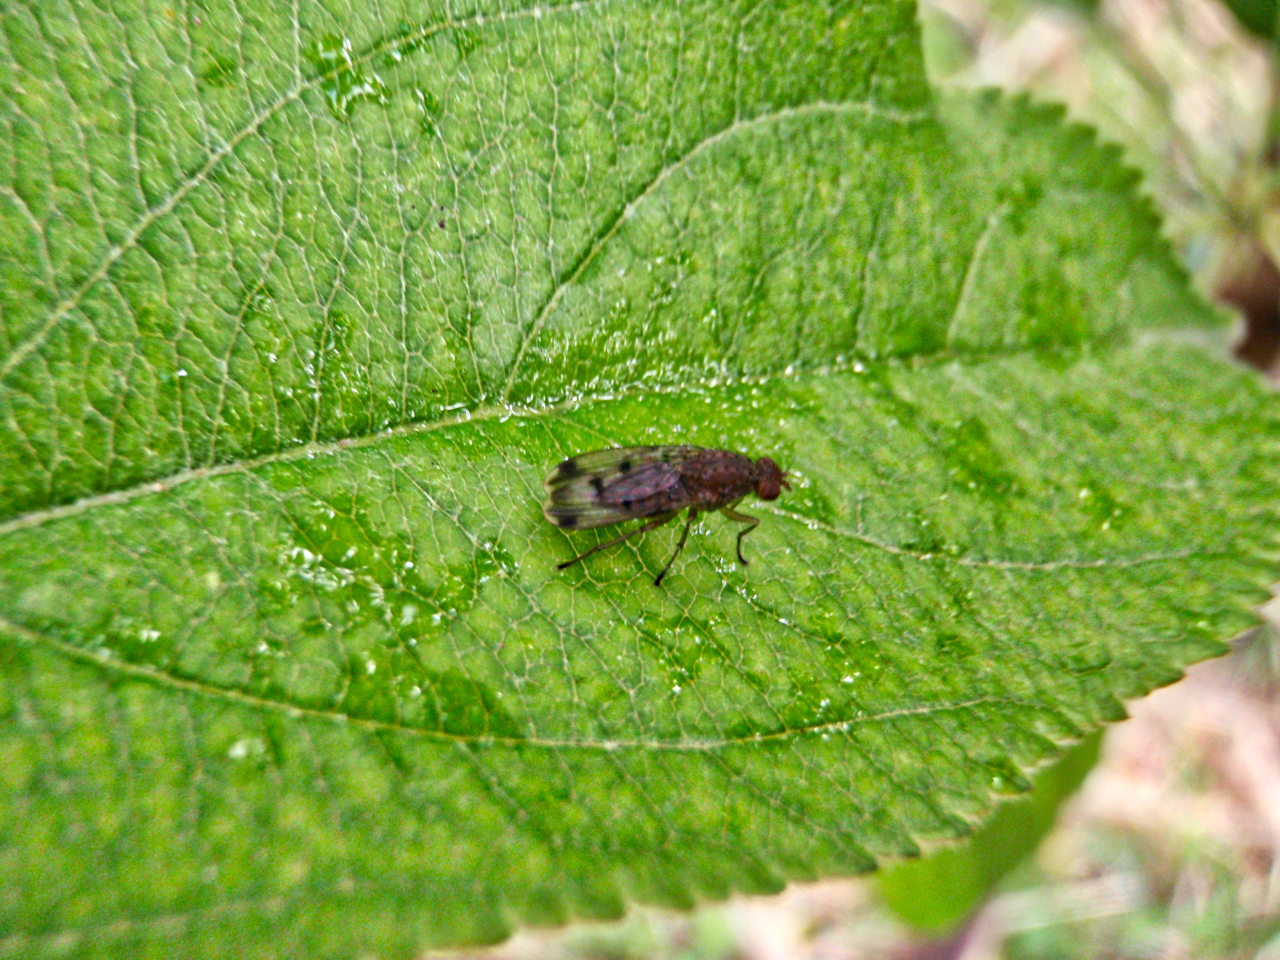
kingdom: Animalia
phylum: Arthropoda
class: Insecta
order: Diptera
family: Heleomyzidae
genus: Suillia
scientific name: Suillia variegata
